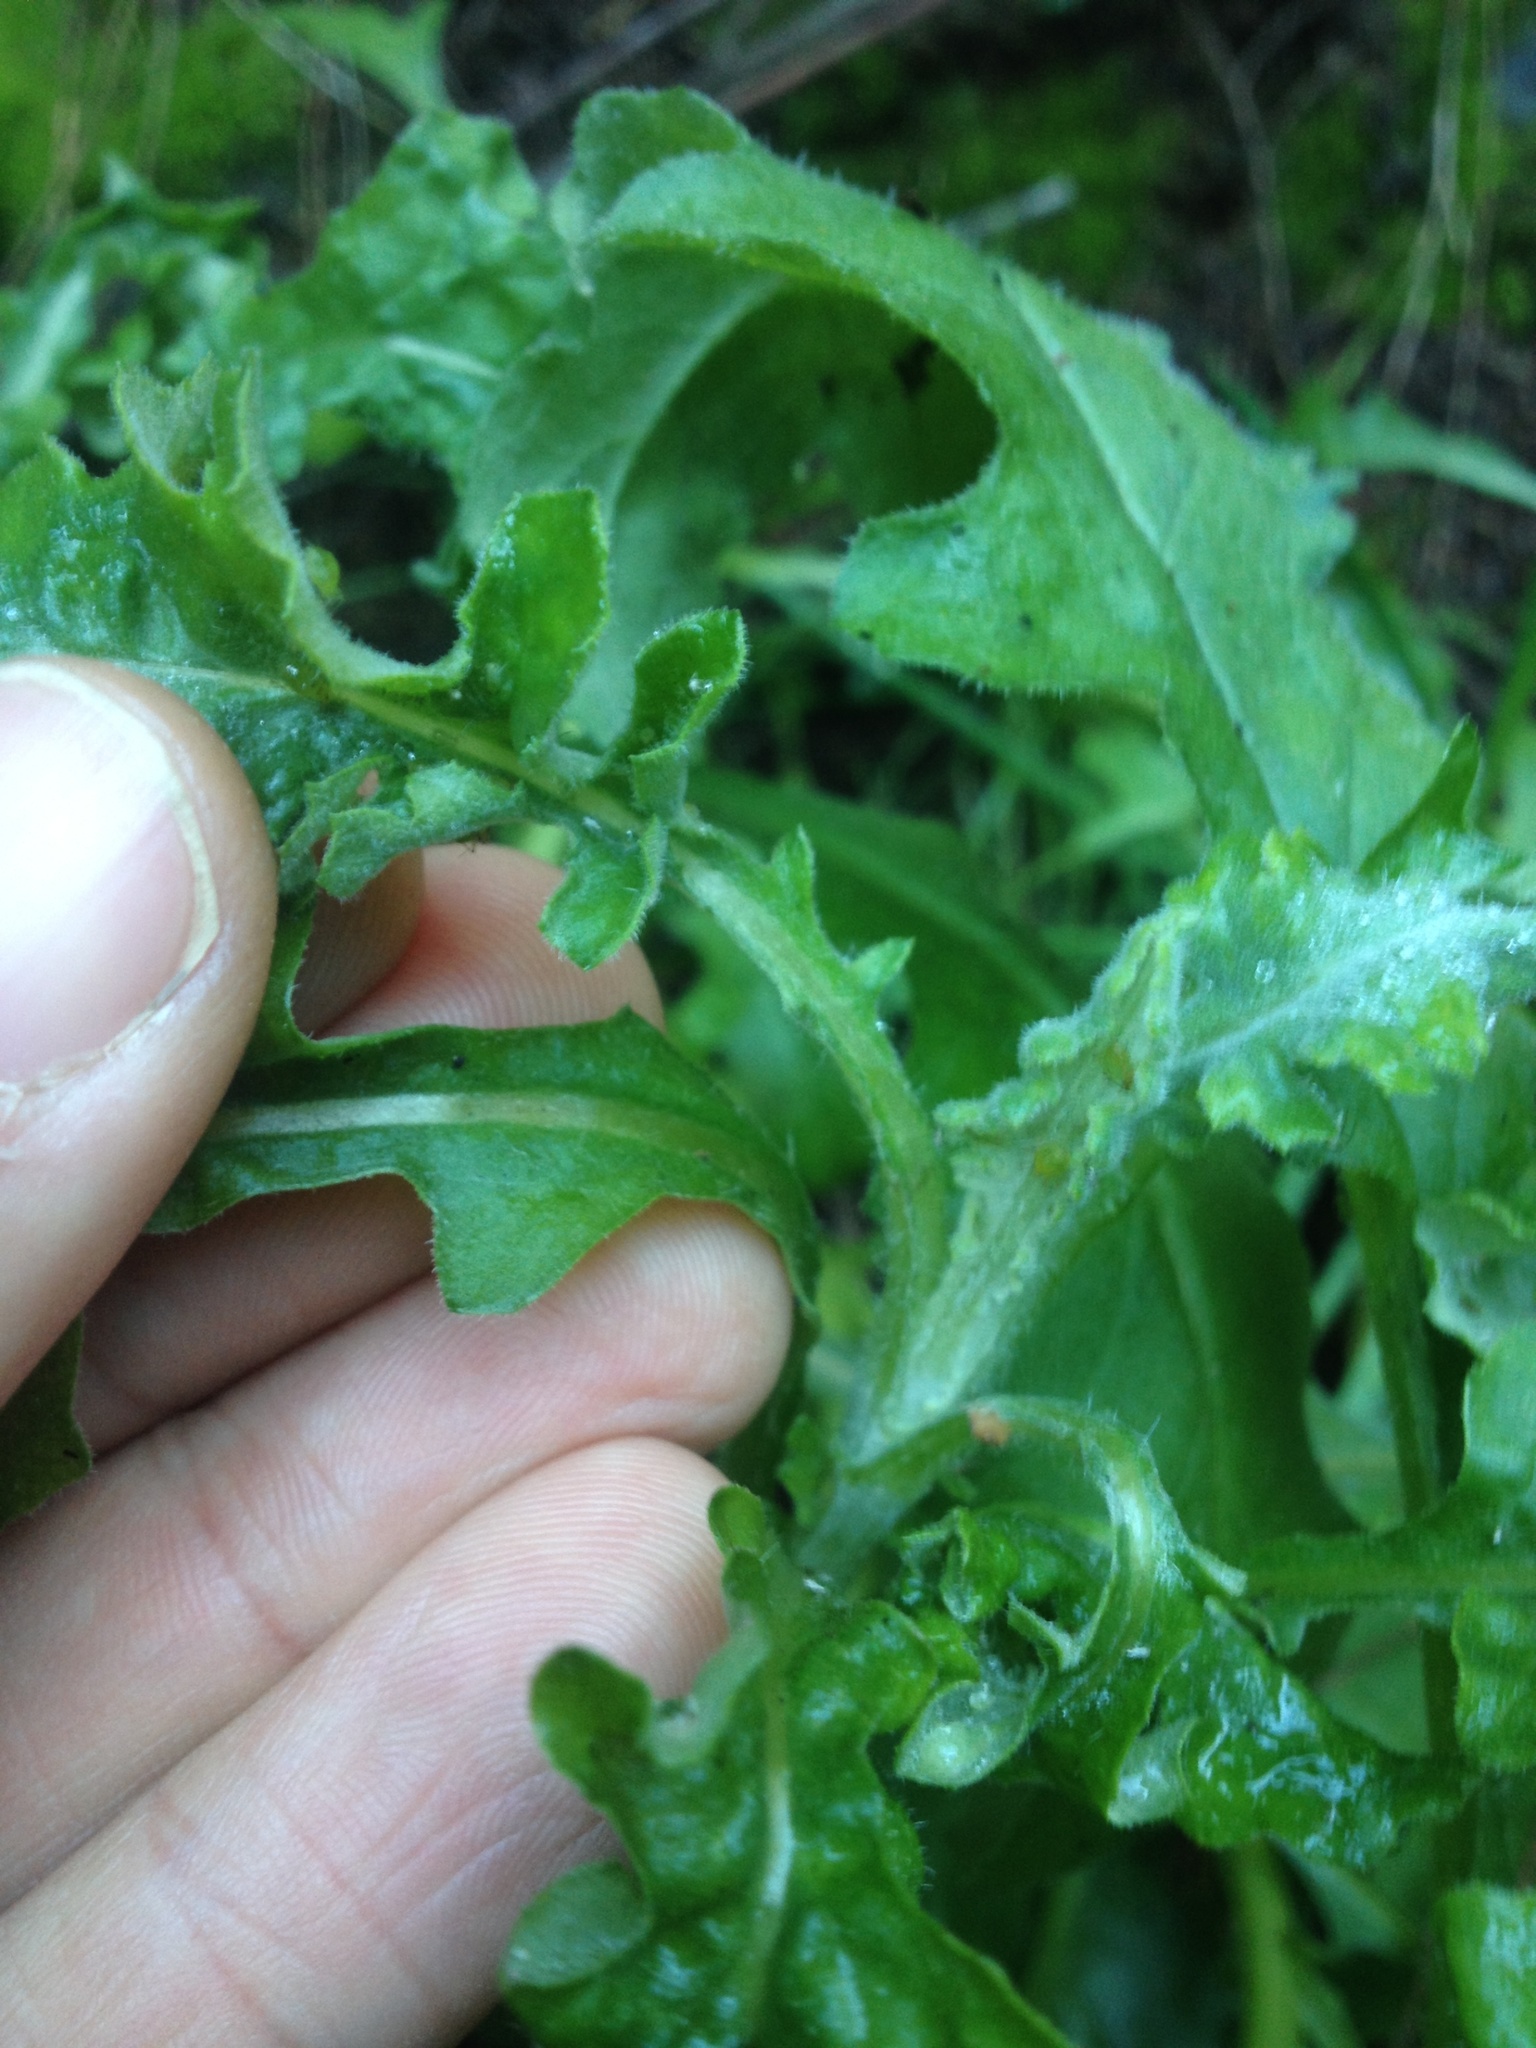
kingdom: Plantae
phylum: Tracheophyta
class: Magnoliopsida
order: Asterales
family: Asteraceae
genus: Senecio
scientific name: Senecio glomeratus
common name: Cutleaf burnweed
